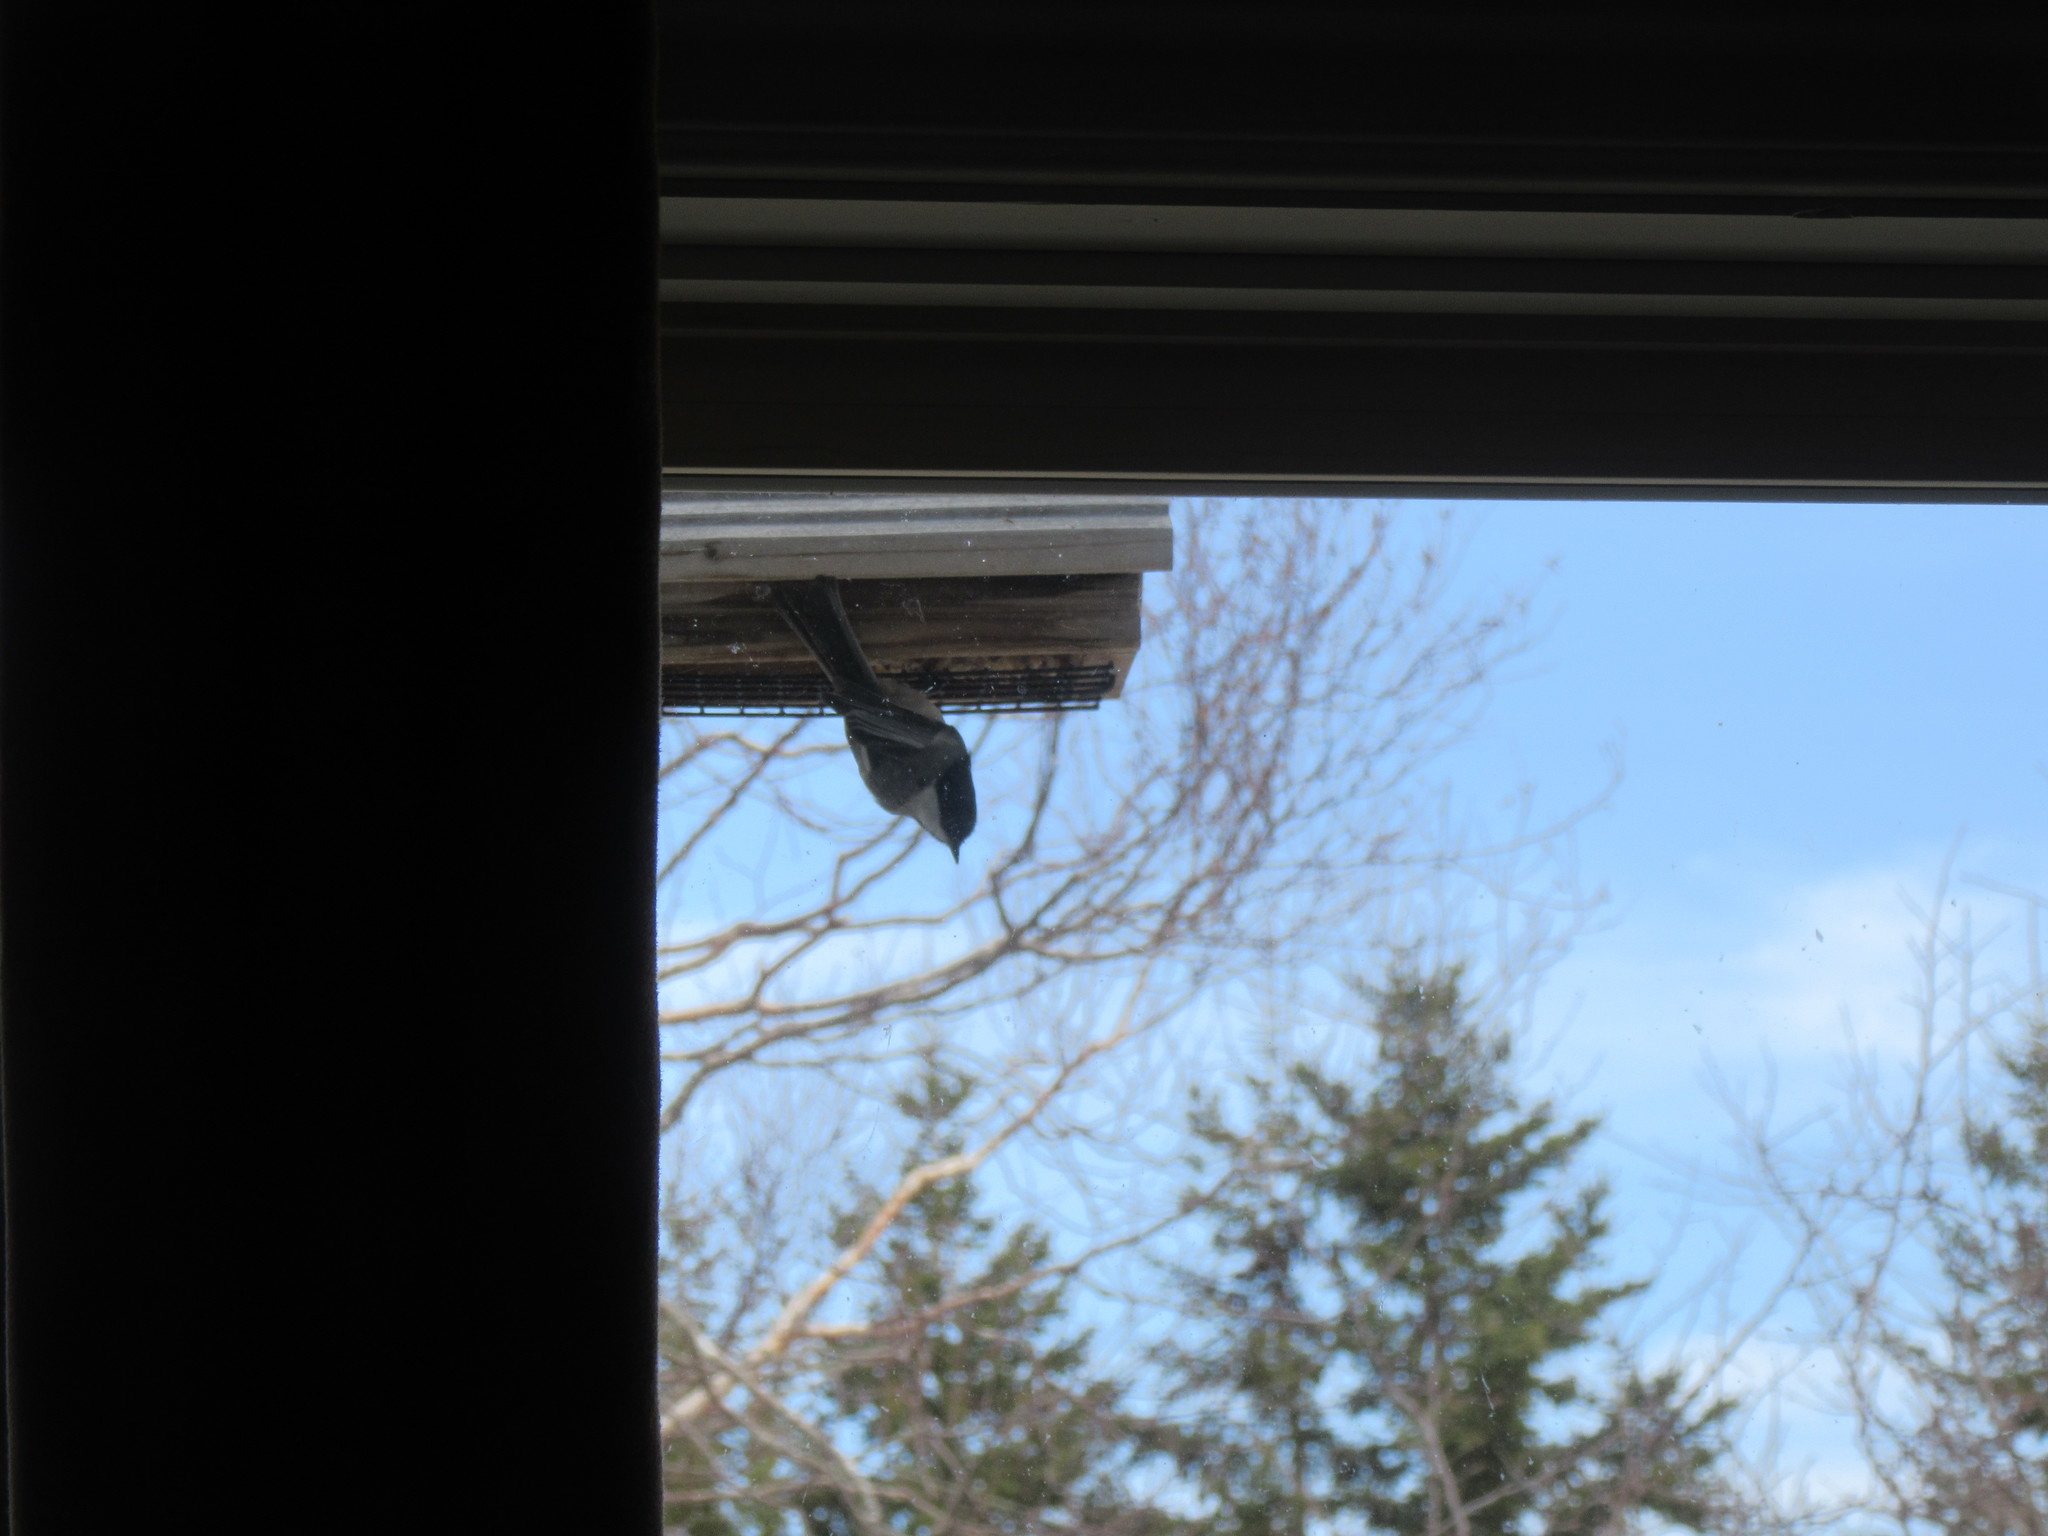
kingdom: Animalia
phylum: Chordata
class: Aves
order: Passeriformes
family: Paridae
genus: Poecile
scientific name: Poecile atricapillus
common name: Black-capped chickadee
